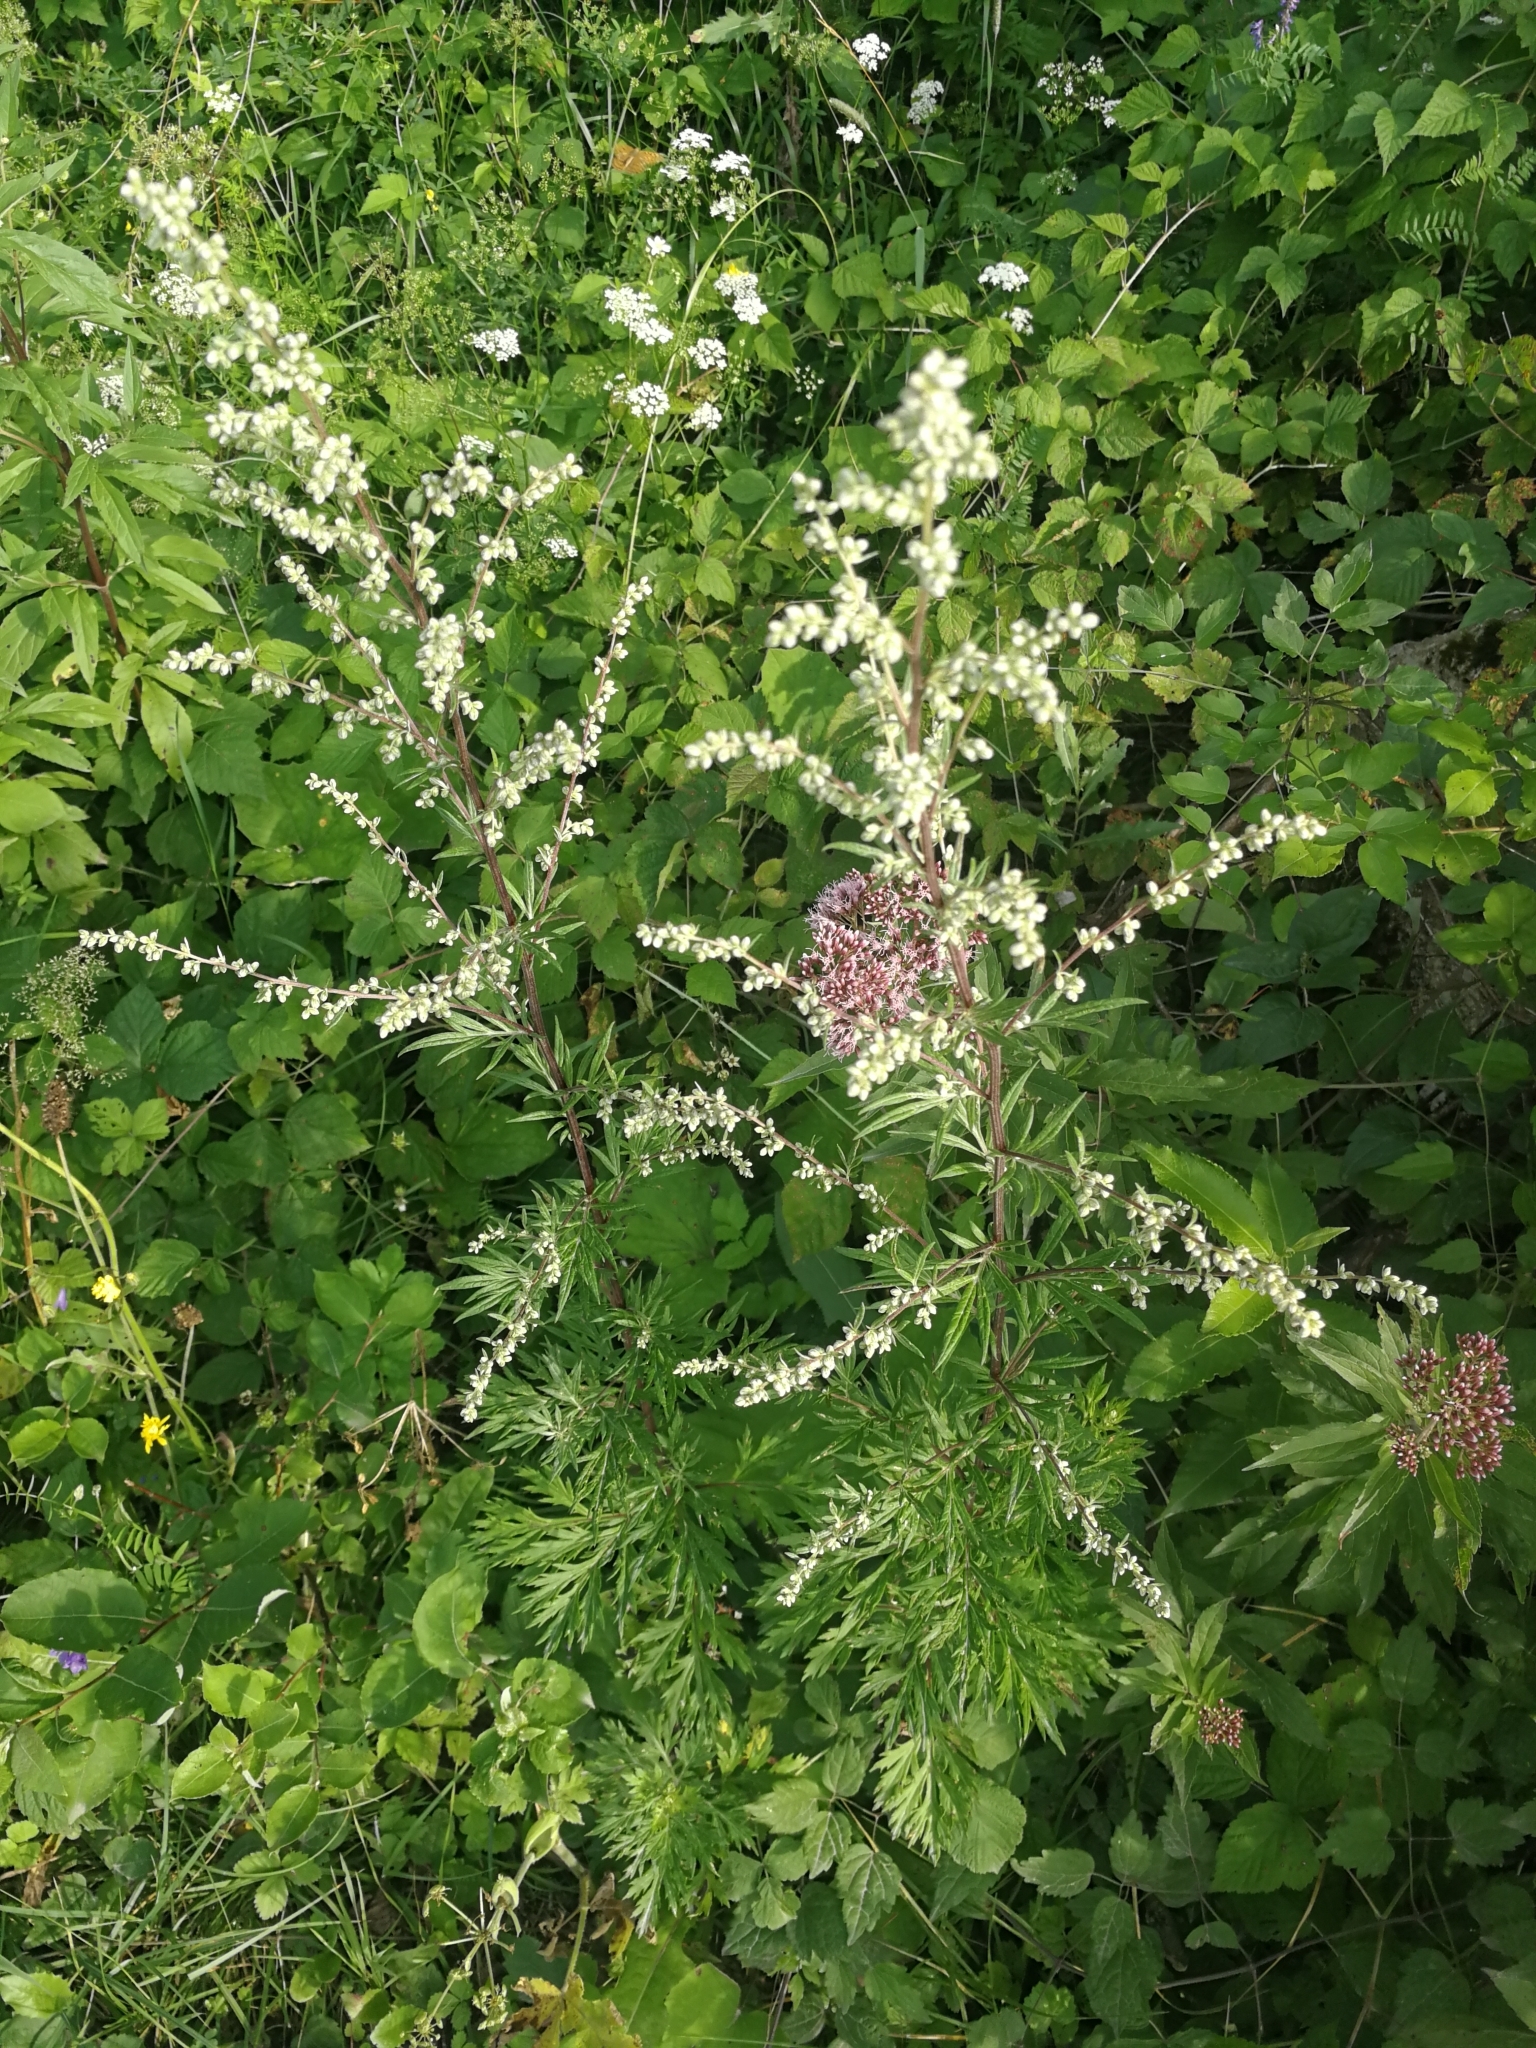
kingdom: Plantae
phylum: Tracheophyta
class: Magnoliopsida
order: Asterales
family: Asteraceae
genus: Artemisia
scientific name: Artemisia vulgaris
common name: Mugwort
